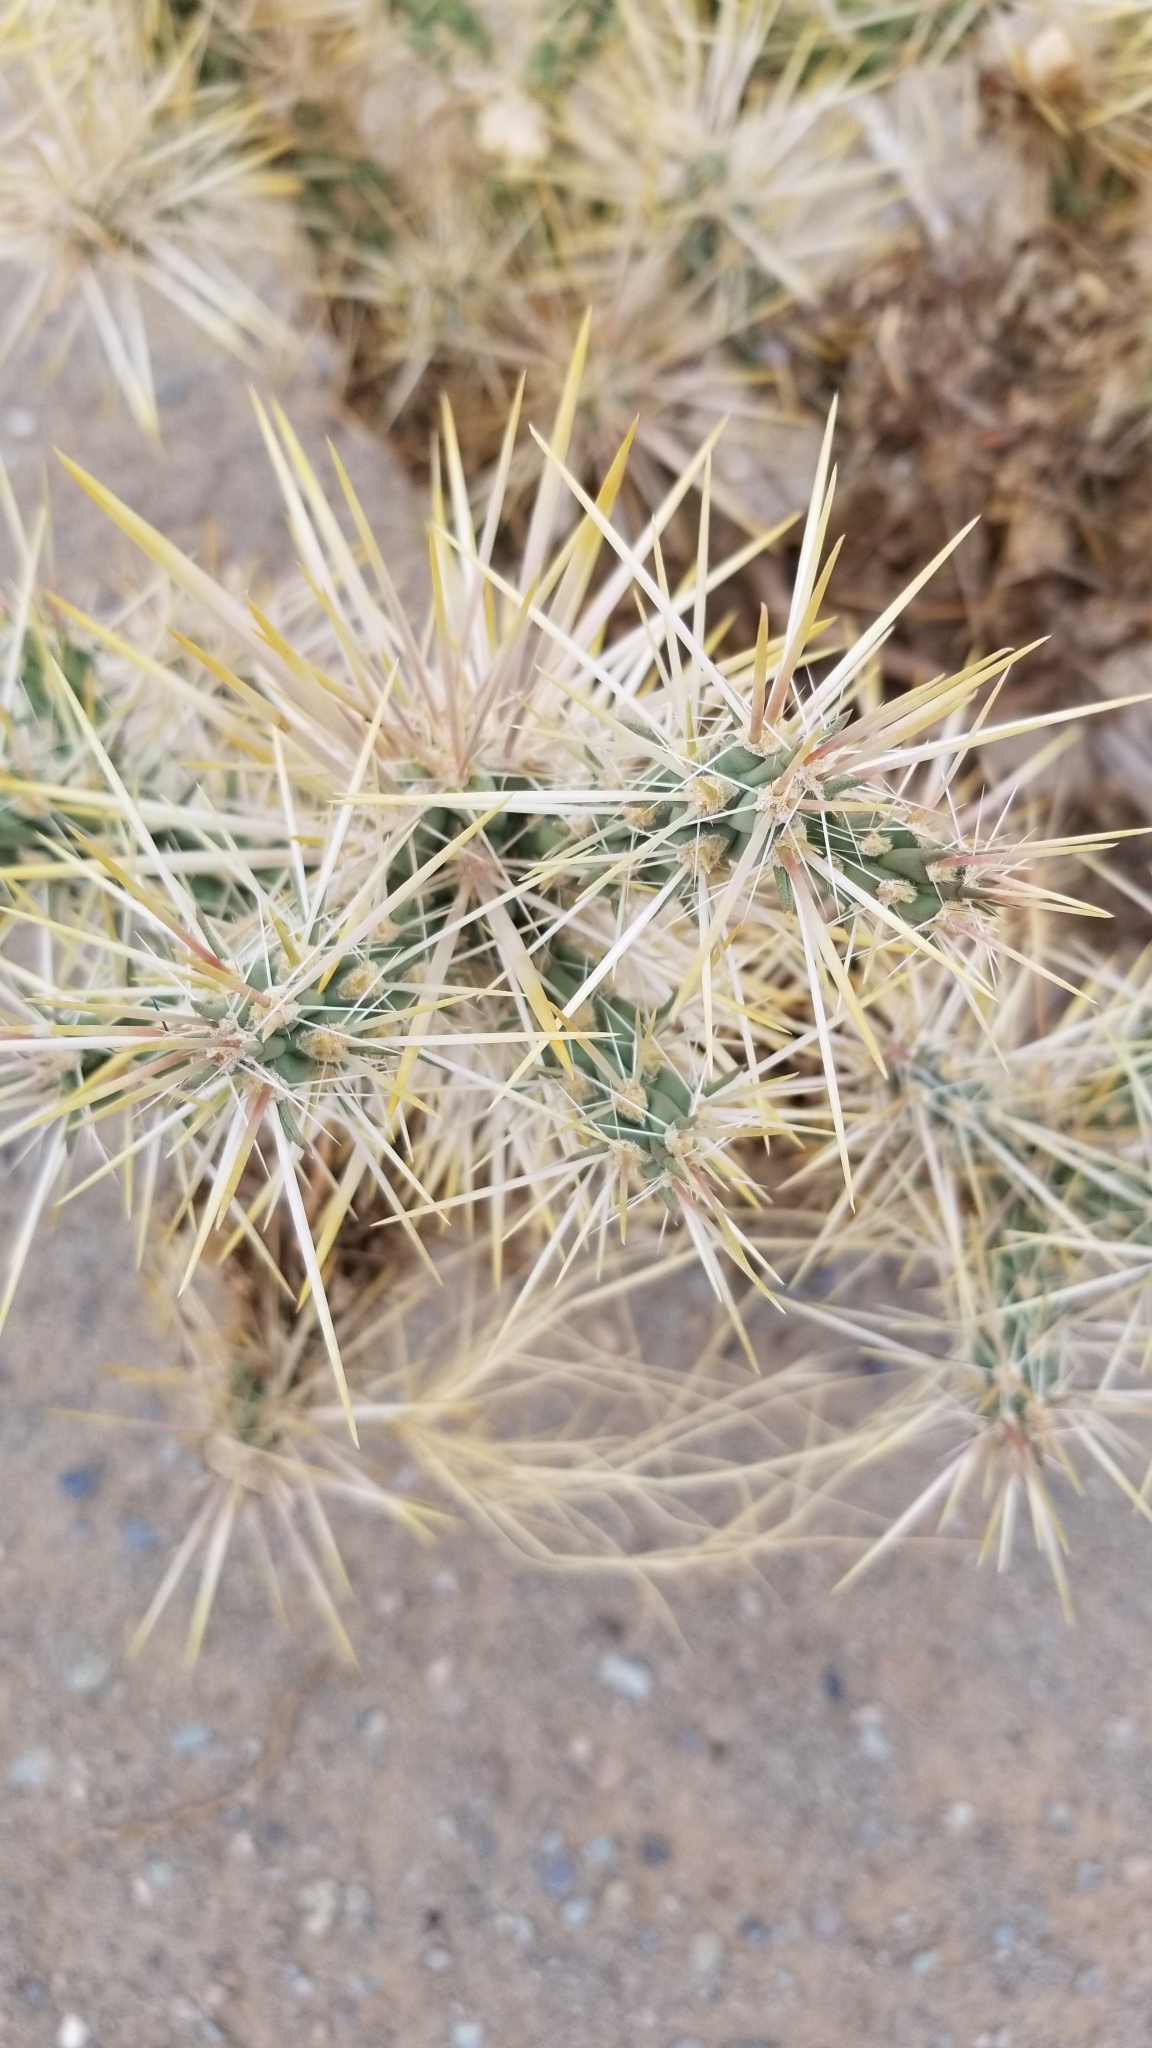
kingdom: Plantae
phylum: Tracheophyta
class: Magnoliopsida
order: Caryophyllales
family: Cactaceae
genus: Cylindropuntia
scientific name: Cylindropuntia echinocarpa
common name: Ground cholla
